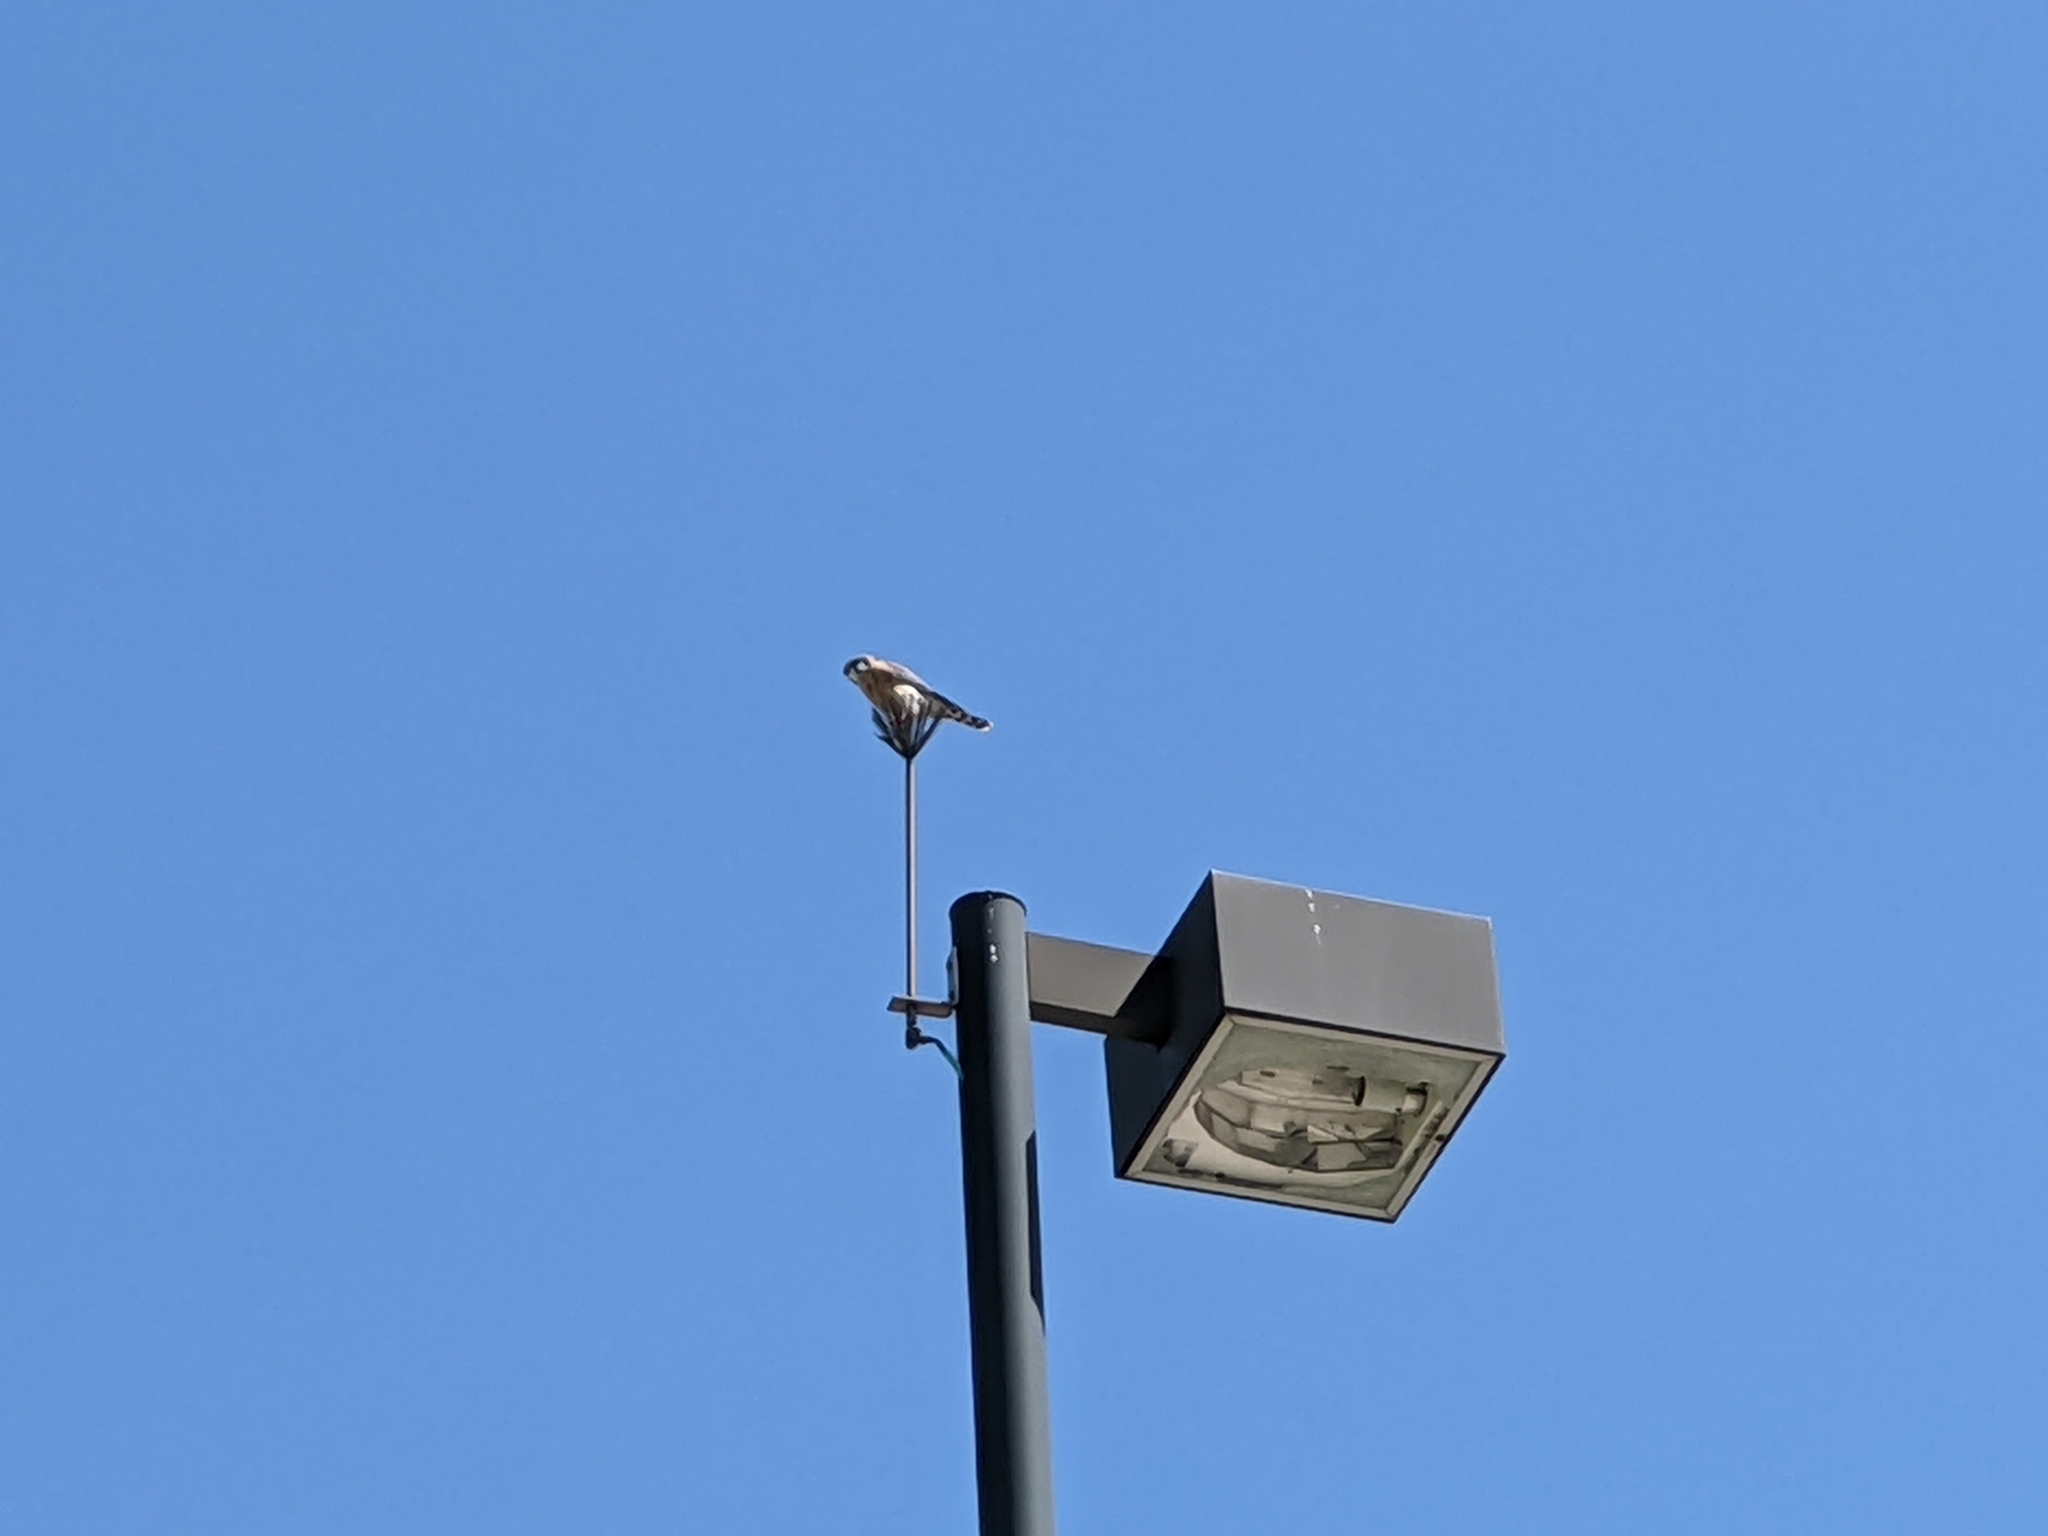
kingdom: Animalia
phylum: Chordata
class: Aves
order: Falconiformes
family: Falconidae
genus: Falco
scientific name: Falco sparverius
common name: American kestrel
